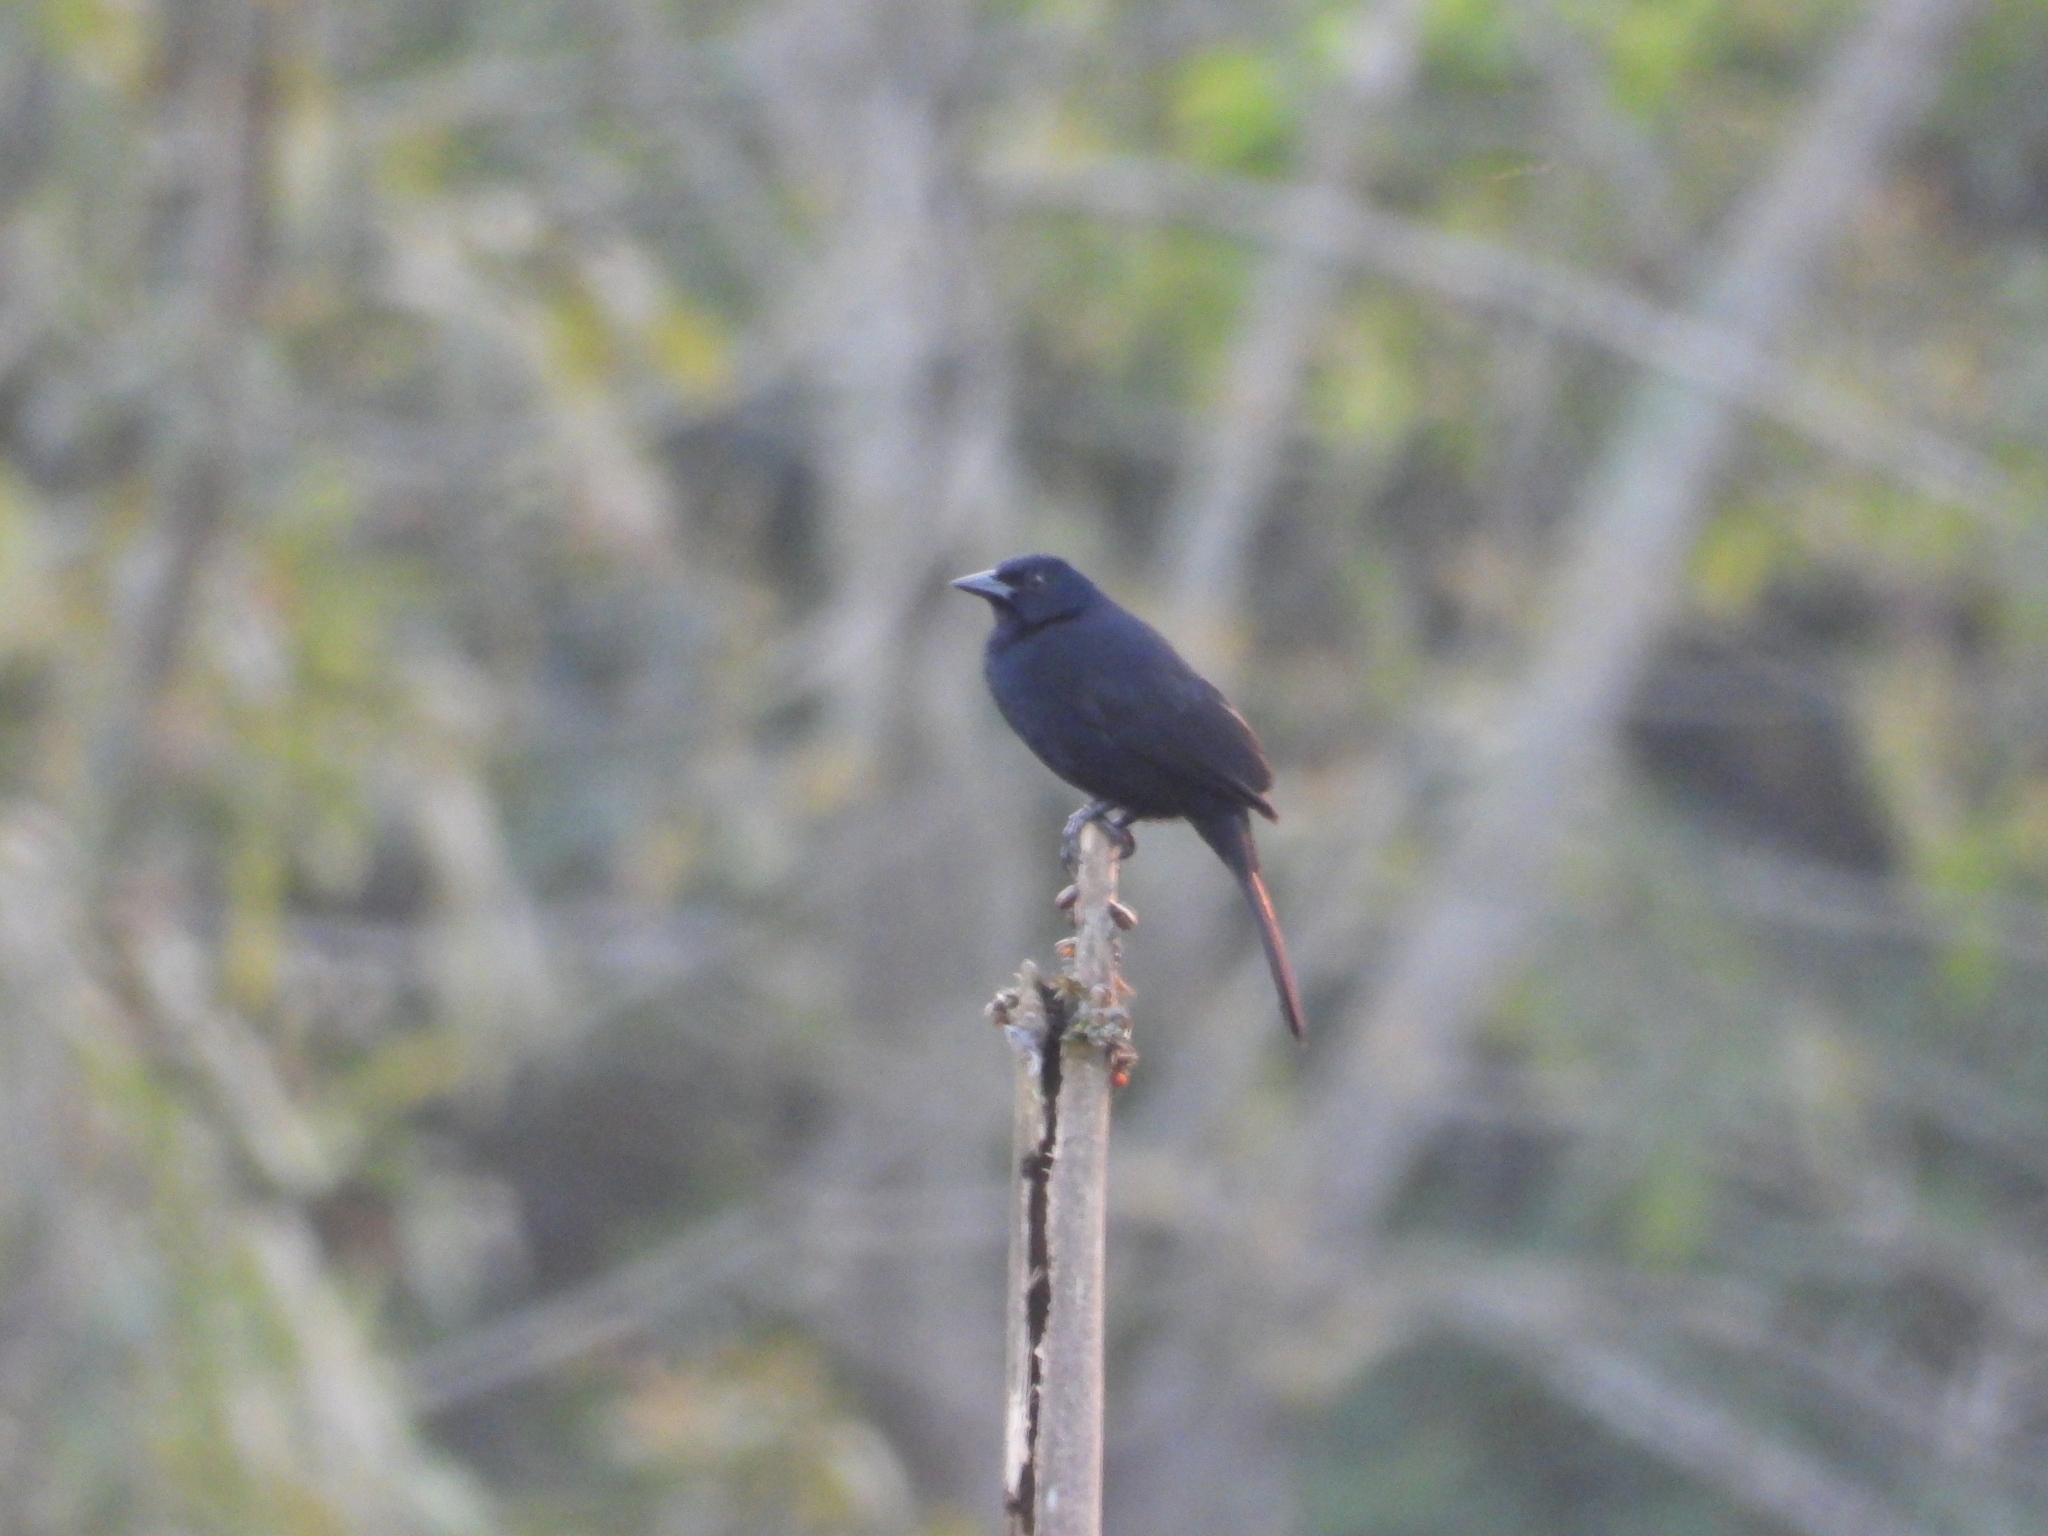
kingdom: Animalia
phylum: Chordata
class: Aves
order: Passeriformes
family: Icteridae
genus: Dives
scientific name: Dives dives
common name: Melodious blackbird
